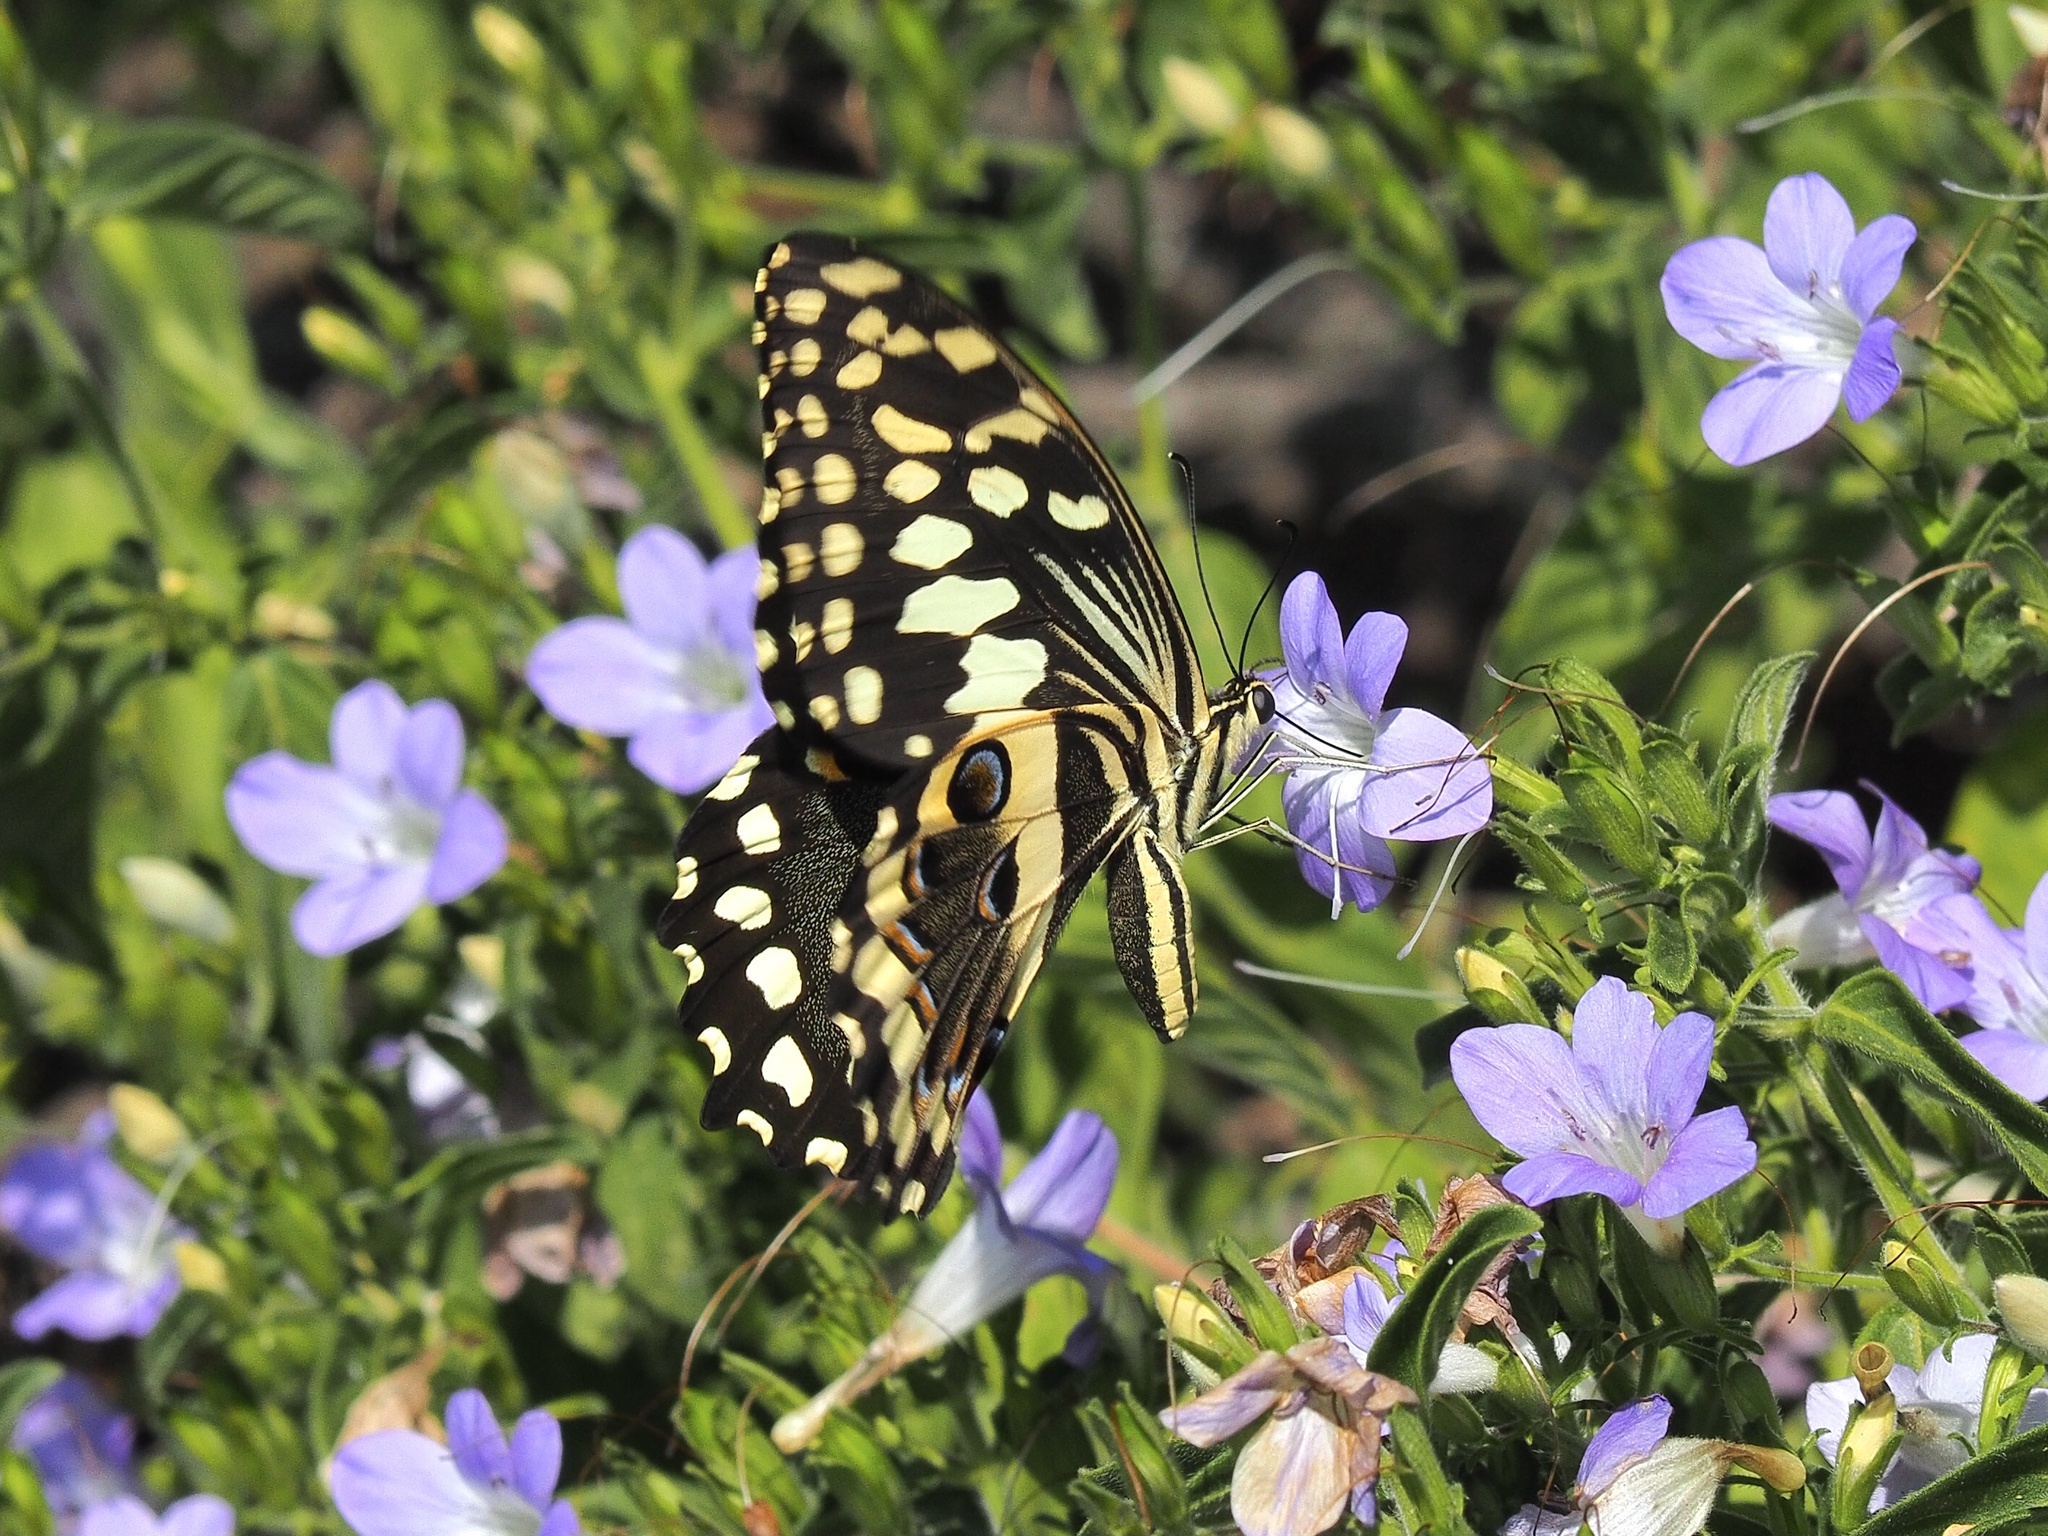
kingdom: Animalia
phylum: Arthropoda
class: Insecta
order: Lepidoptera
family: Papilionidae
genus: Papilio
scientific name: Papilio demodocus
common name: Christmas butterfly
